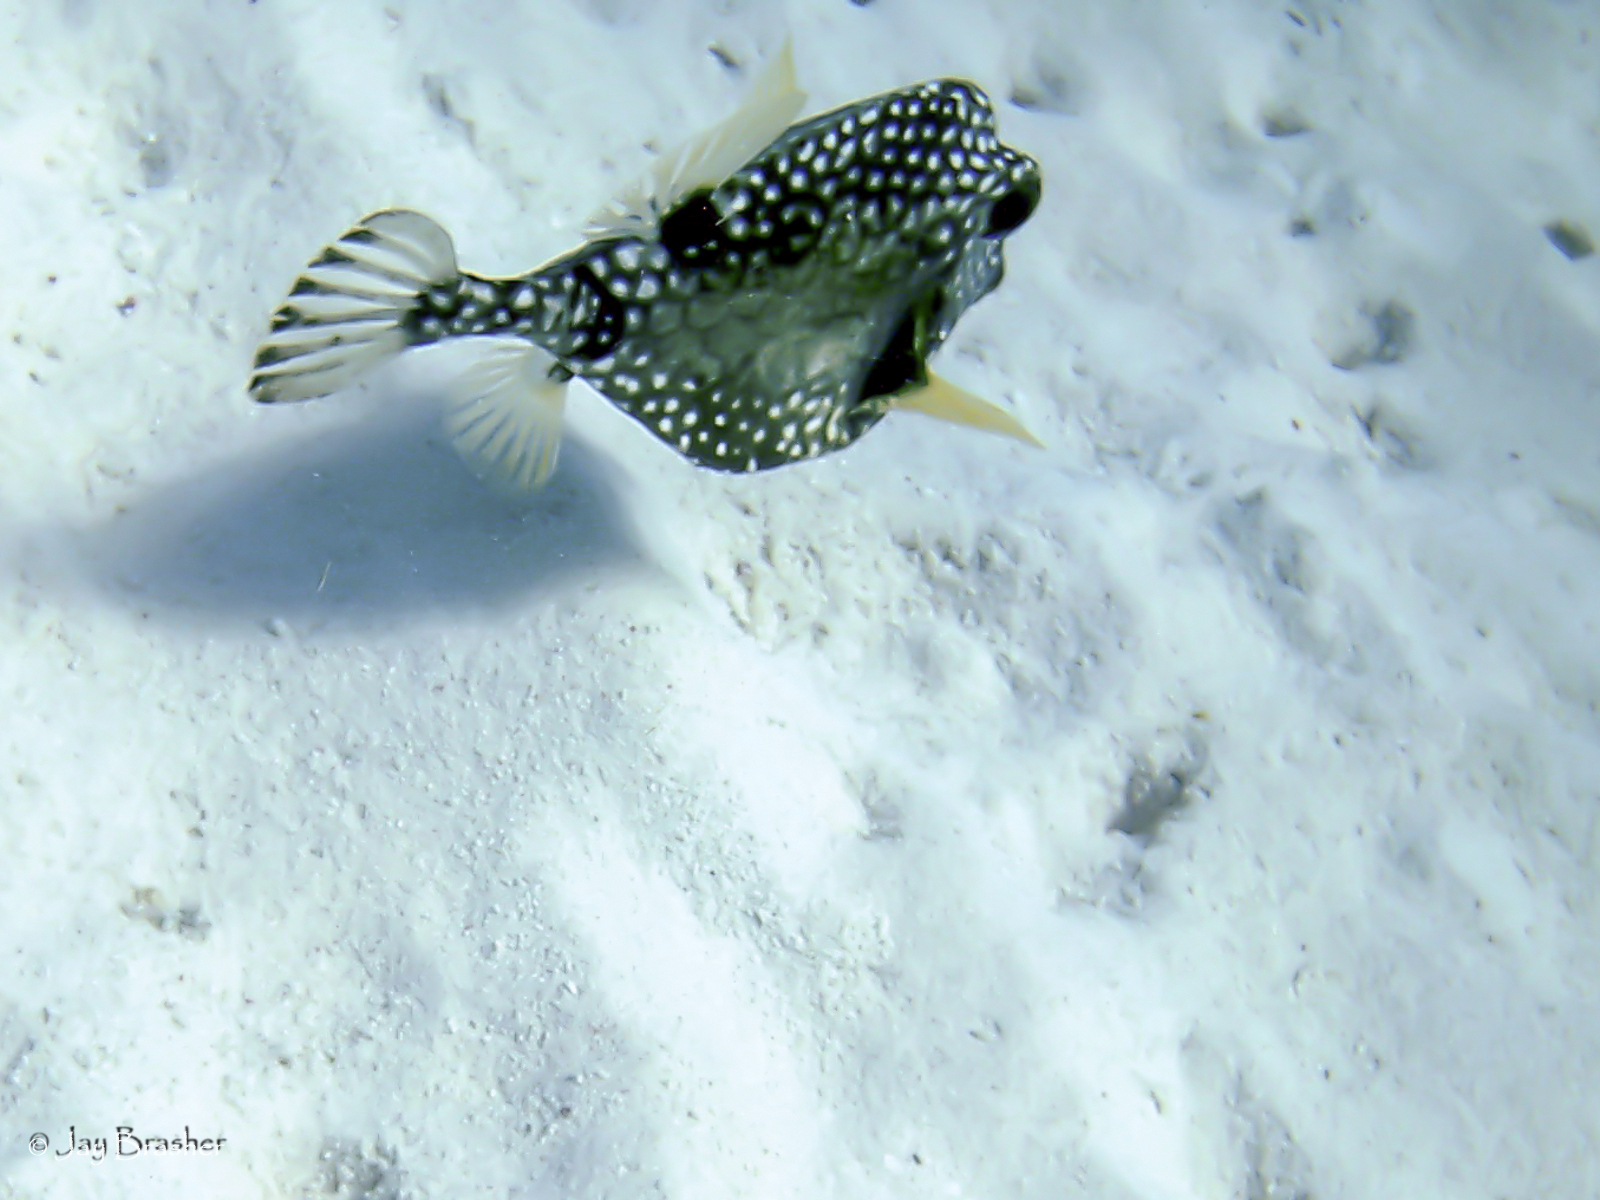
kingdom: Animalia
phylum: Chordata
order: Tetraodontiformes
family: Ostraciidae
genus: Lactophrys
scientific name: Lactophrys triqueter
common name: Smooth trunkfish
